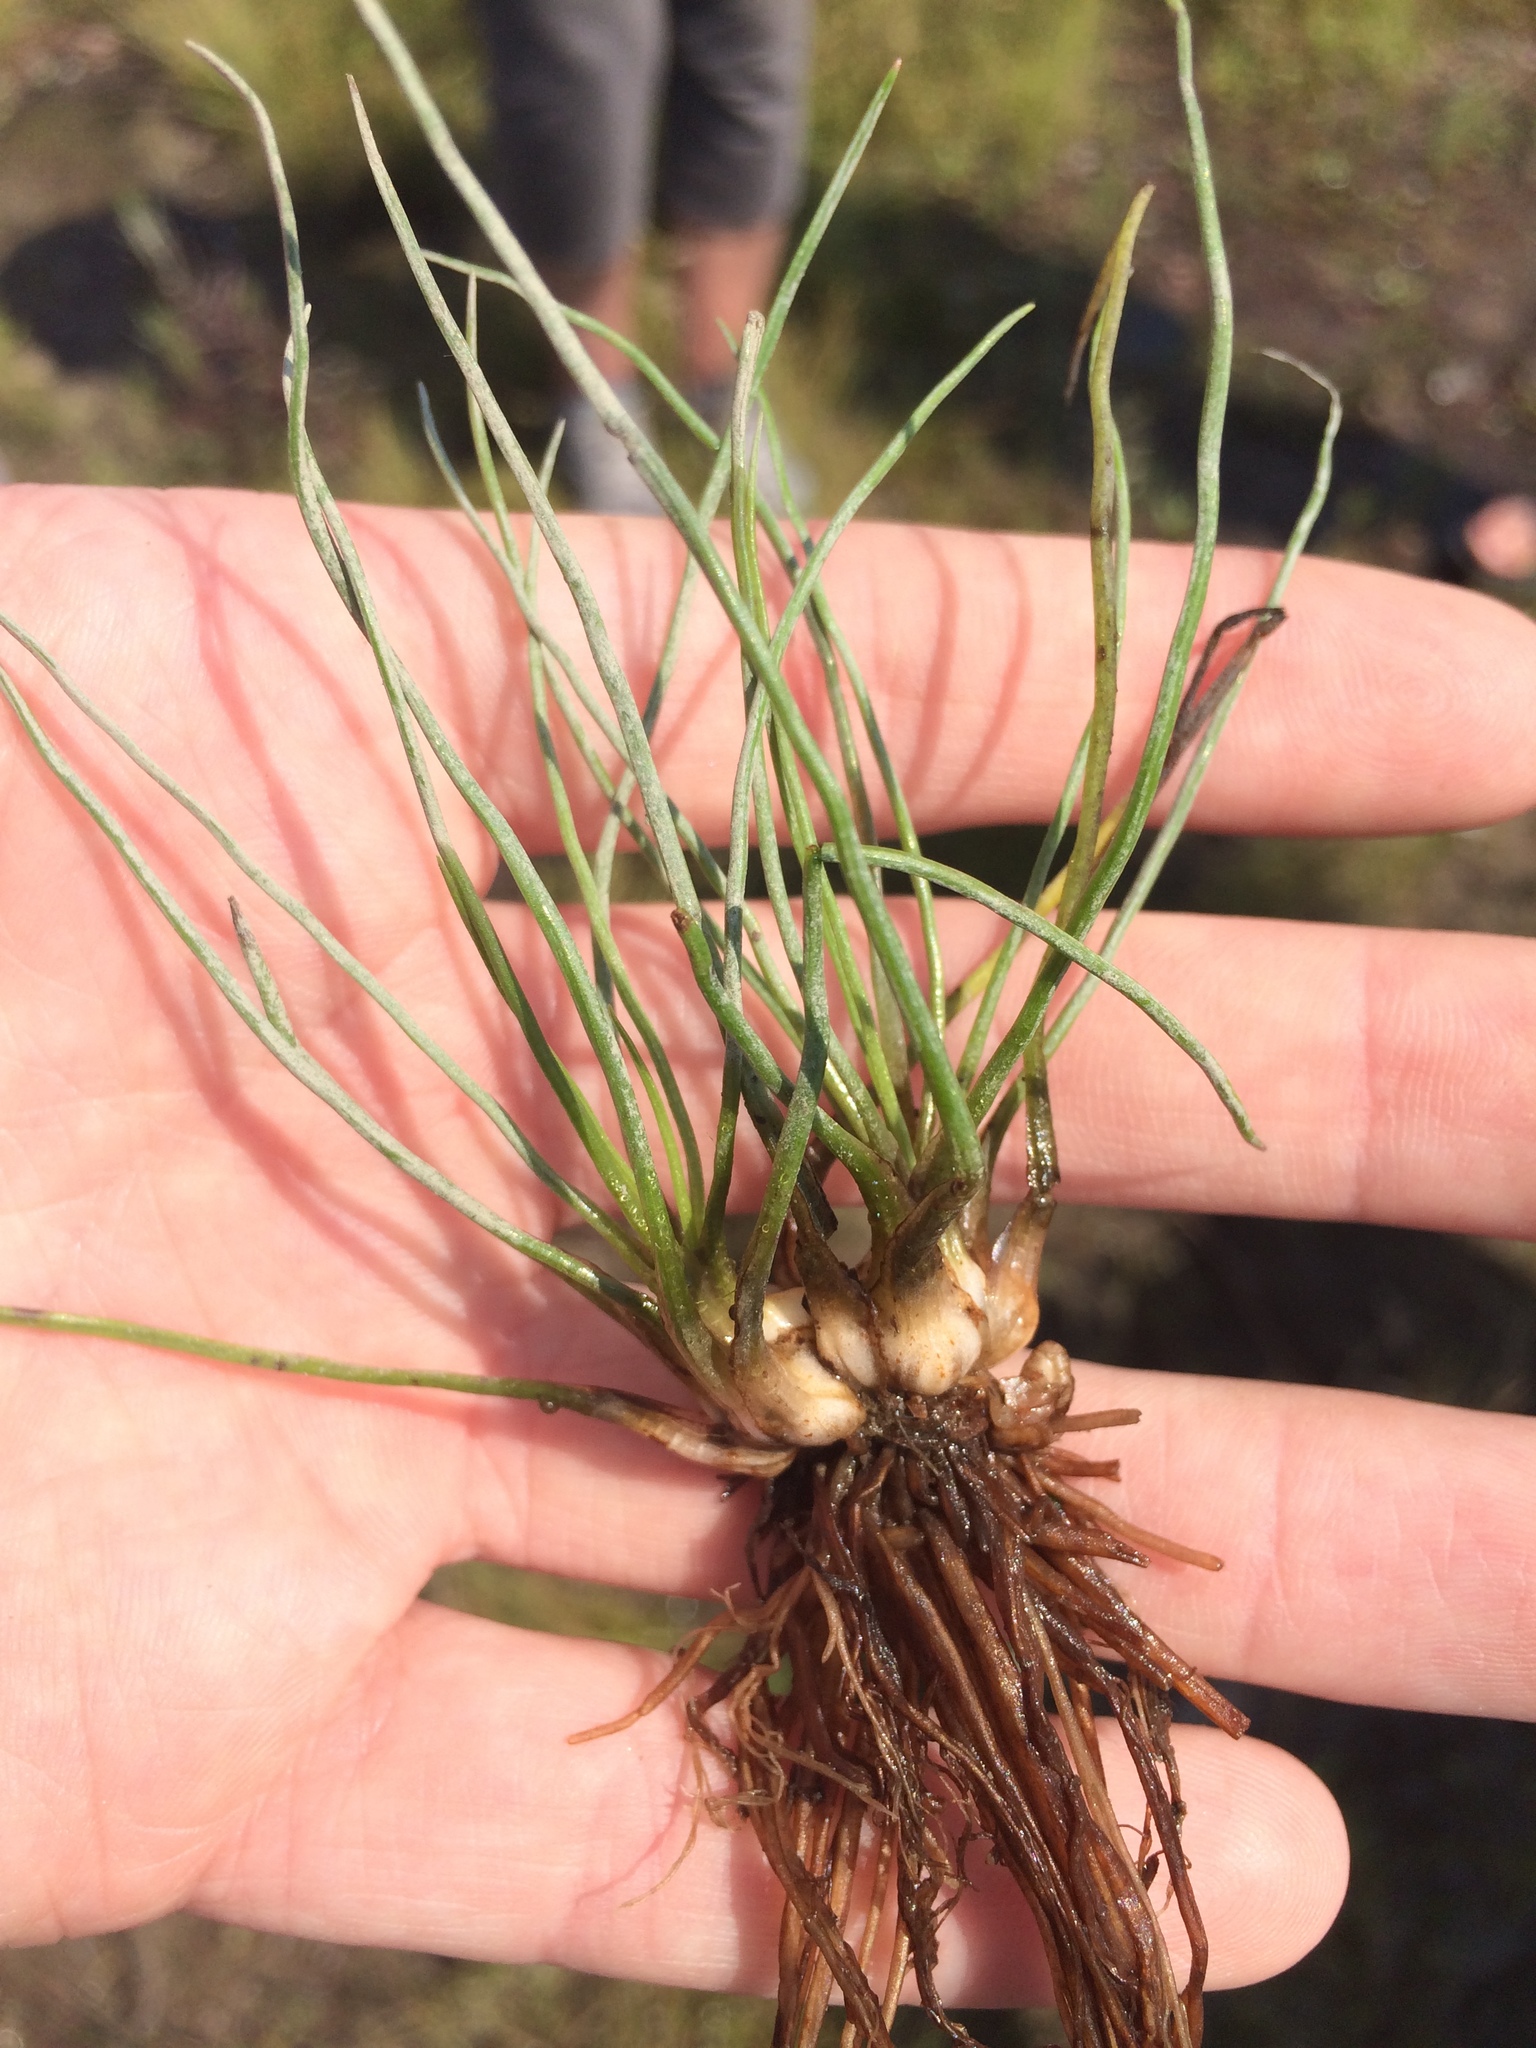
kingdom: Plantae
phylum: Tracheophyta
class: Lycopodiopsida
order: Isoetales
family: Isoetaceae
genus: Isoetes
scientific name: Isoetes laurentiana
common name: St. lawrence quillwort
